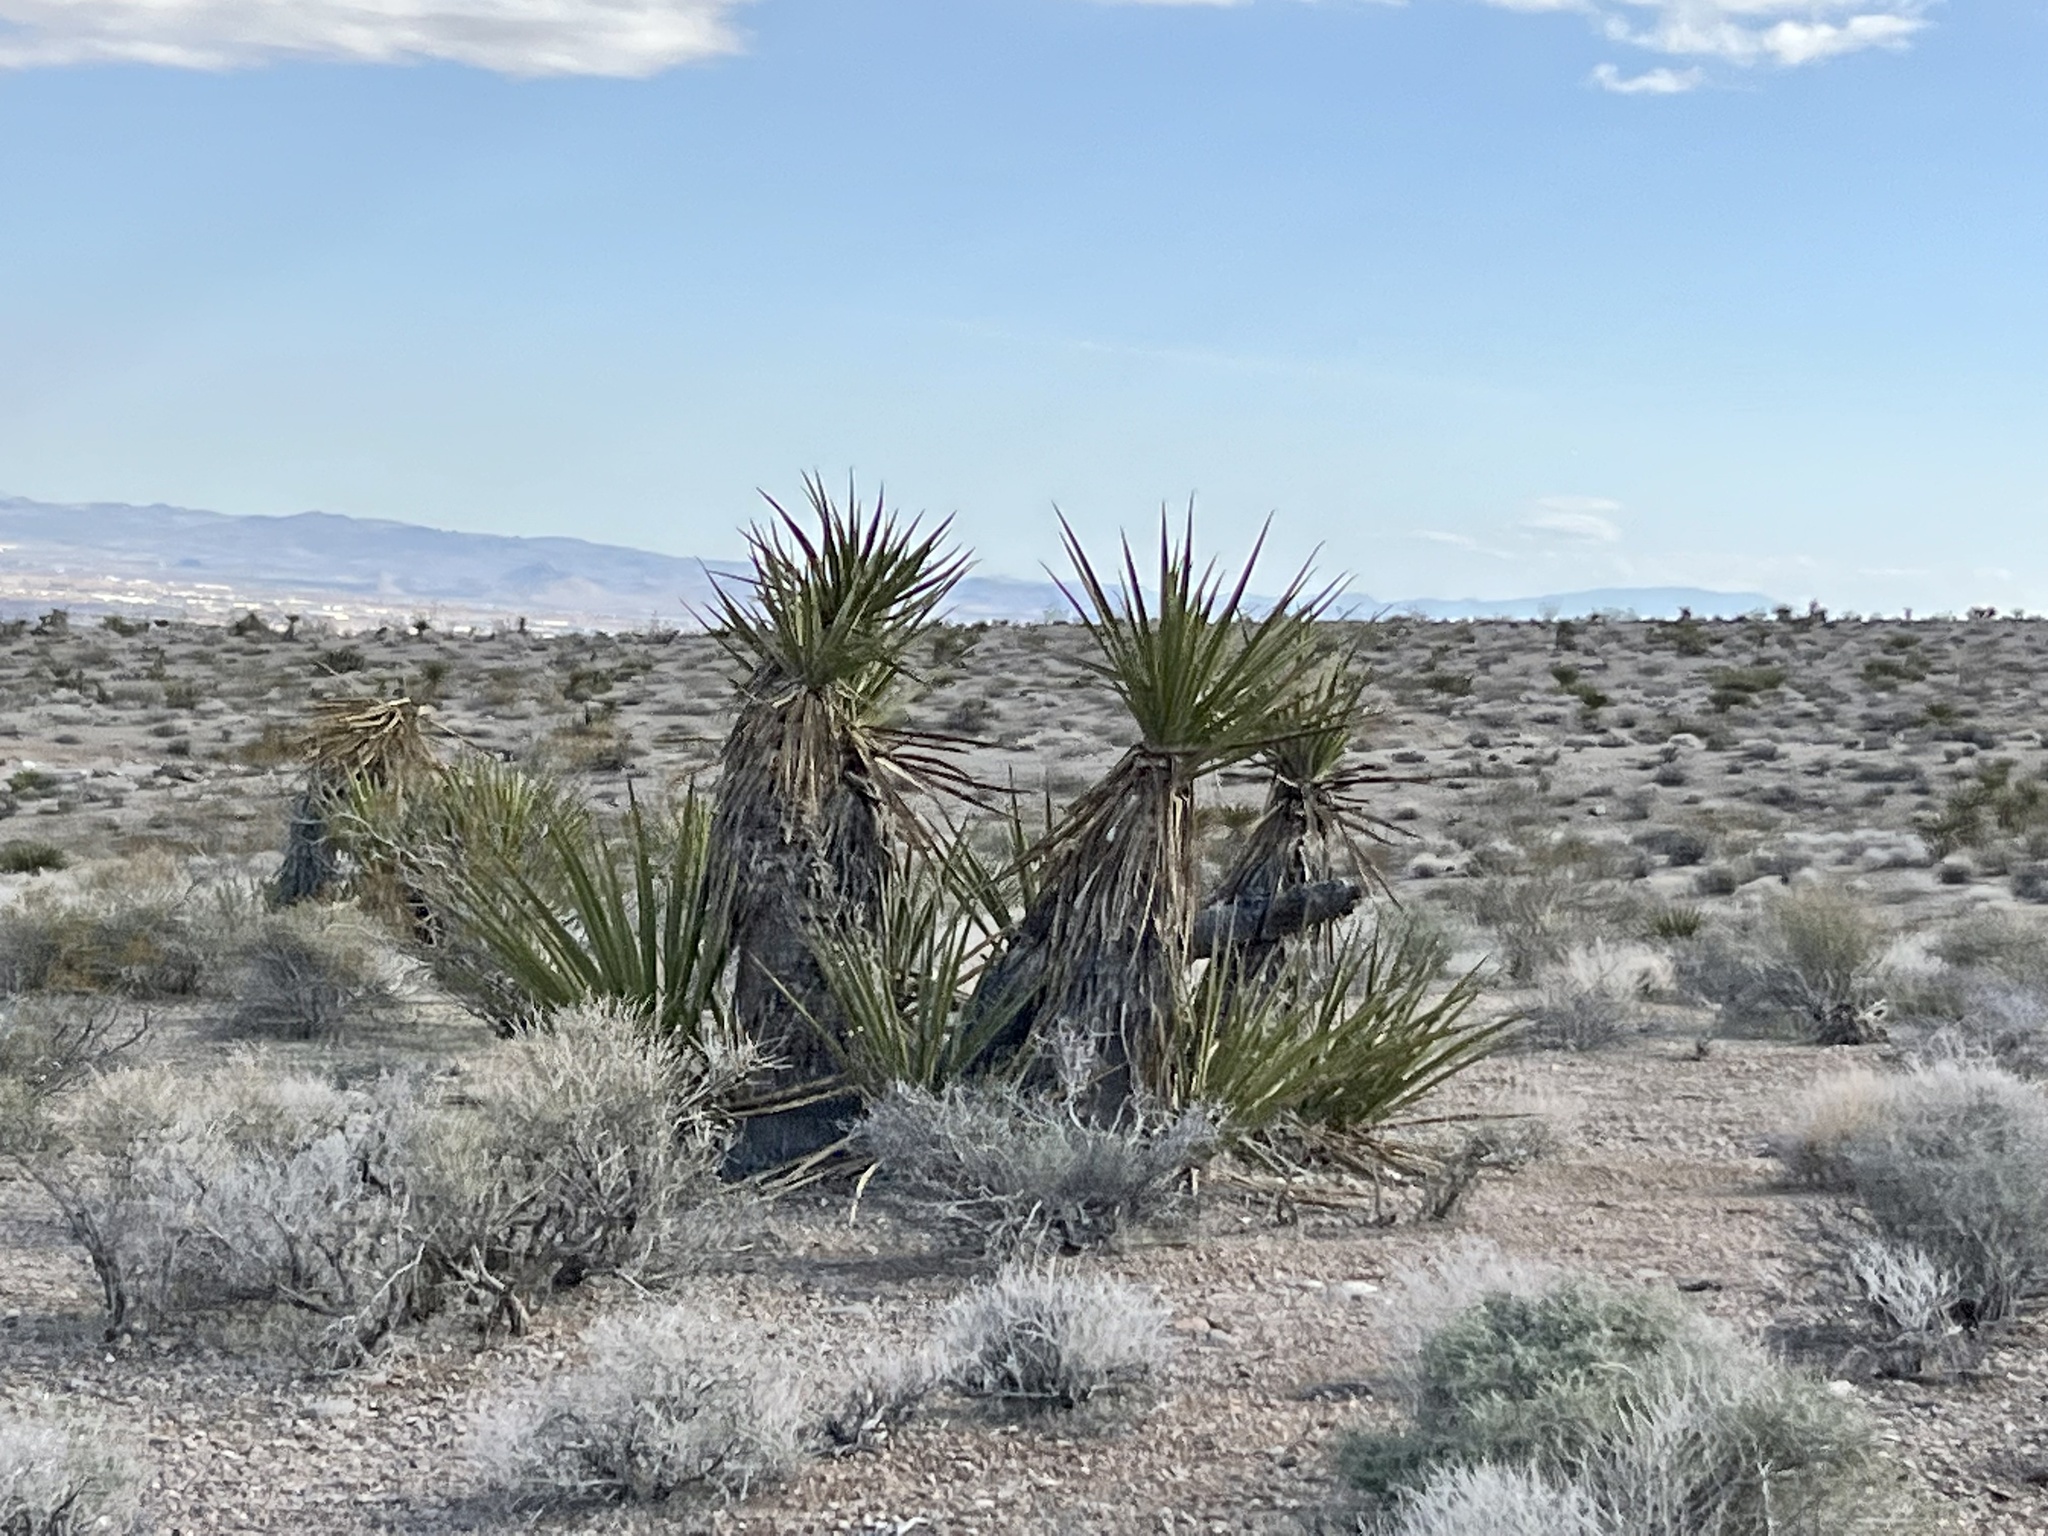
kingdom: Plantae
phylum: Tracheophyta
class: Liliopsida
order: Asparagales
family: Asparagaceae
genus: Yucca
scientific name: Yucca schidigera
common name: Mojave yucca
